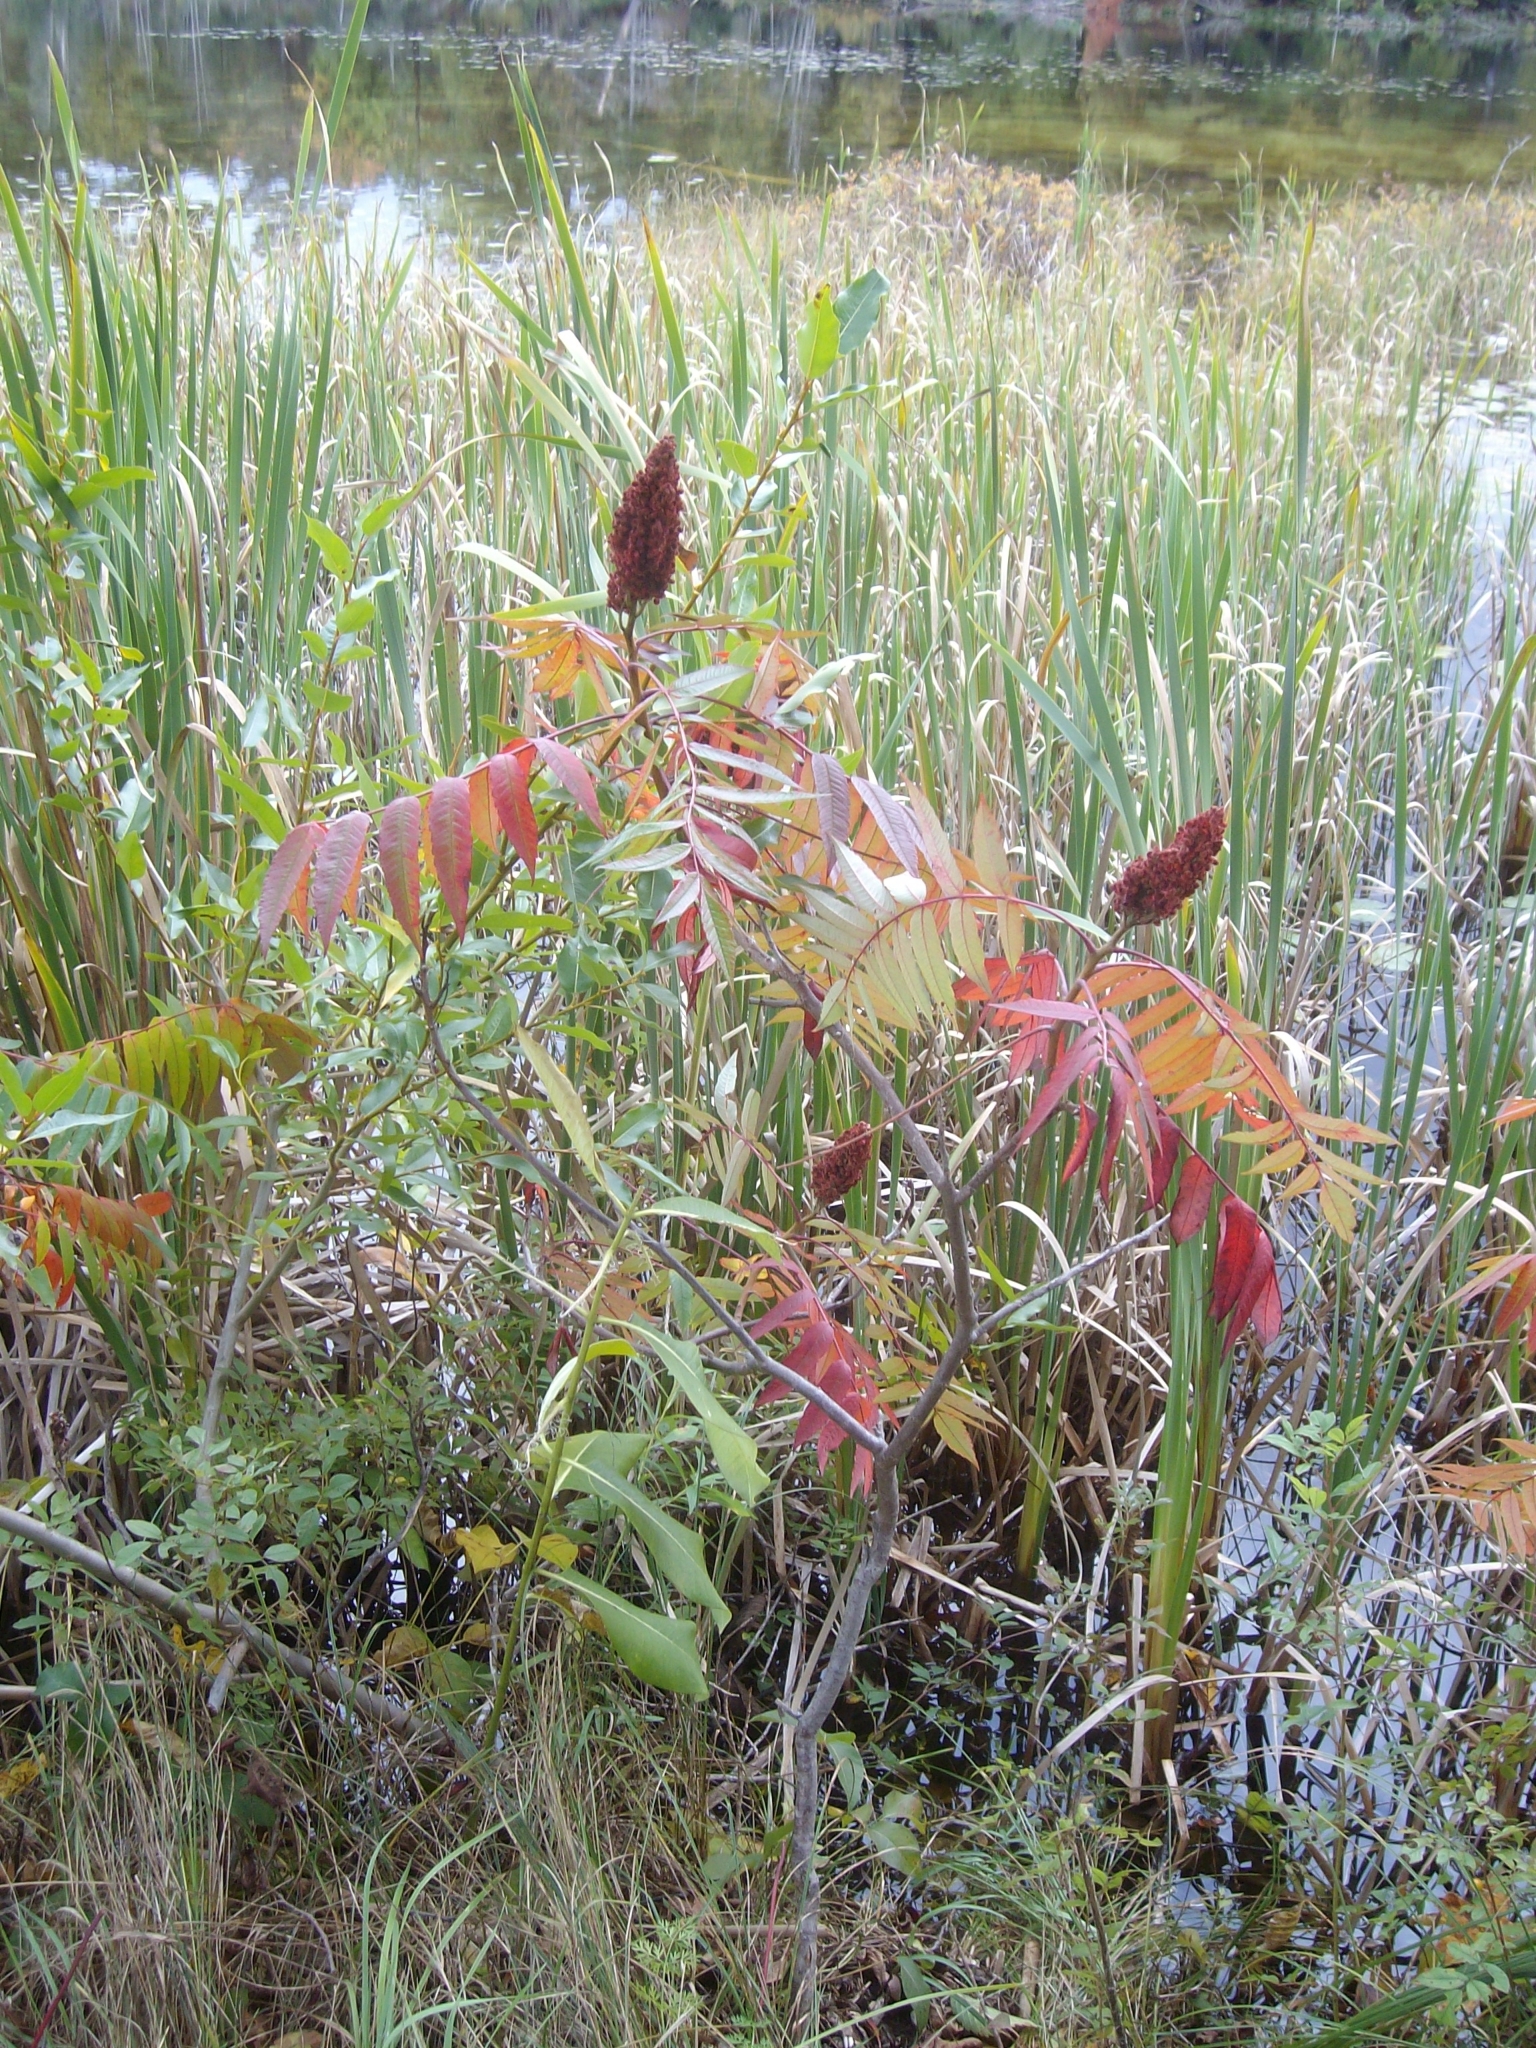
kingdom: Plantae
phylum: Tracheophyta
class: Magnoliopsida
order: Sapindales
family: Anacardiaceae
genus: Rhus
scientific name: Rhus typhina
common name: Staghorn sumac
